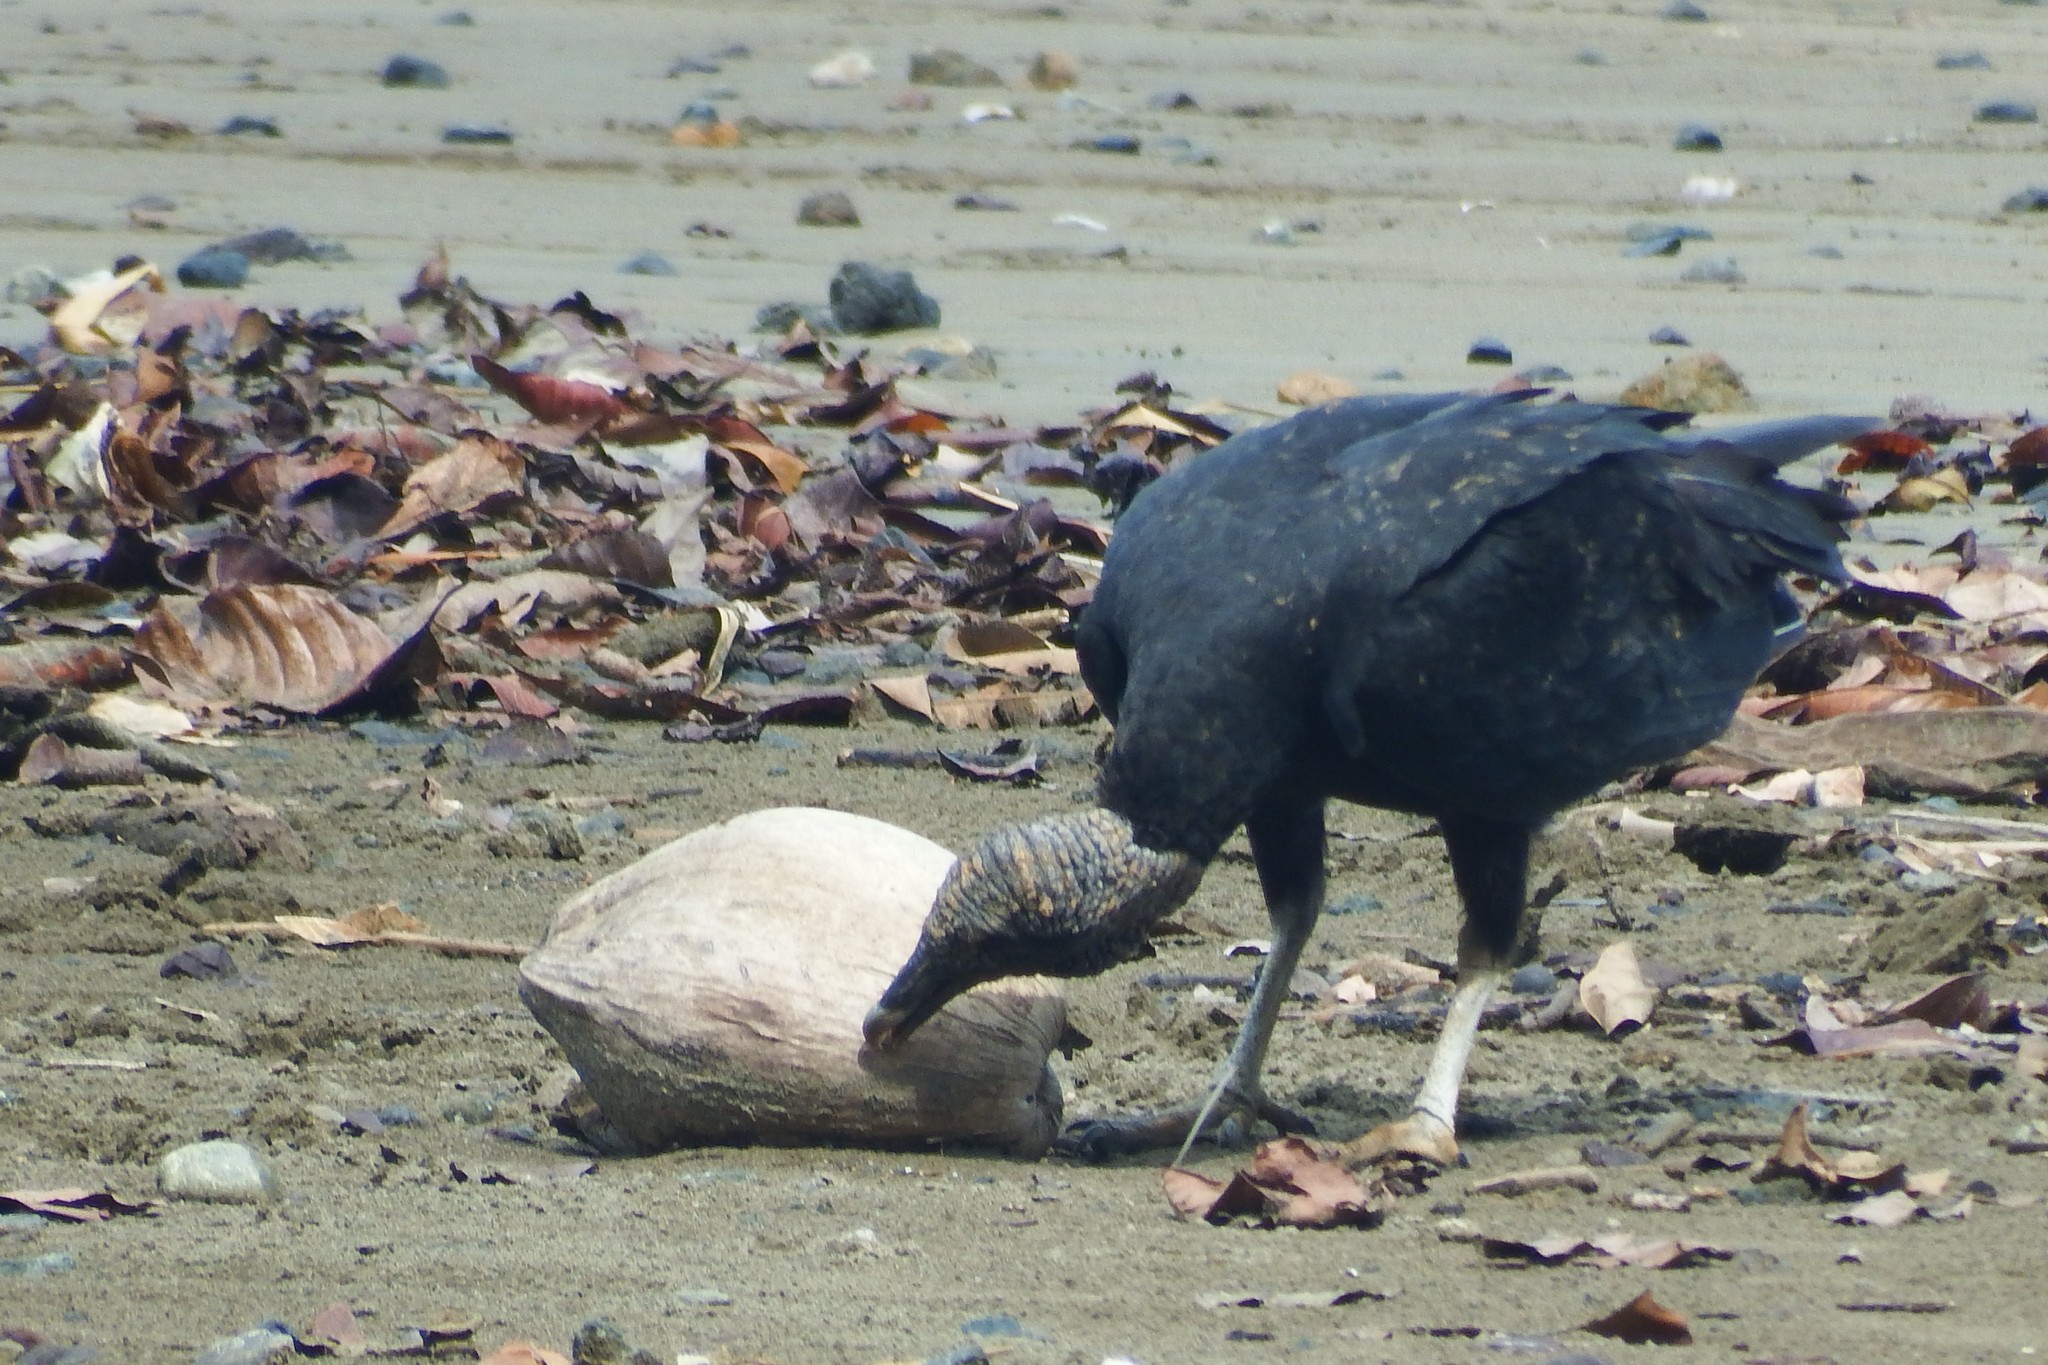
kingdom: Animalia
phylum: Chordata
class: Aves
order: Accipitriformes
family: Cathartidae
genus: Coragyps
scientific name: Coragyps atratus
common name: Black vulture
